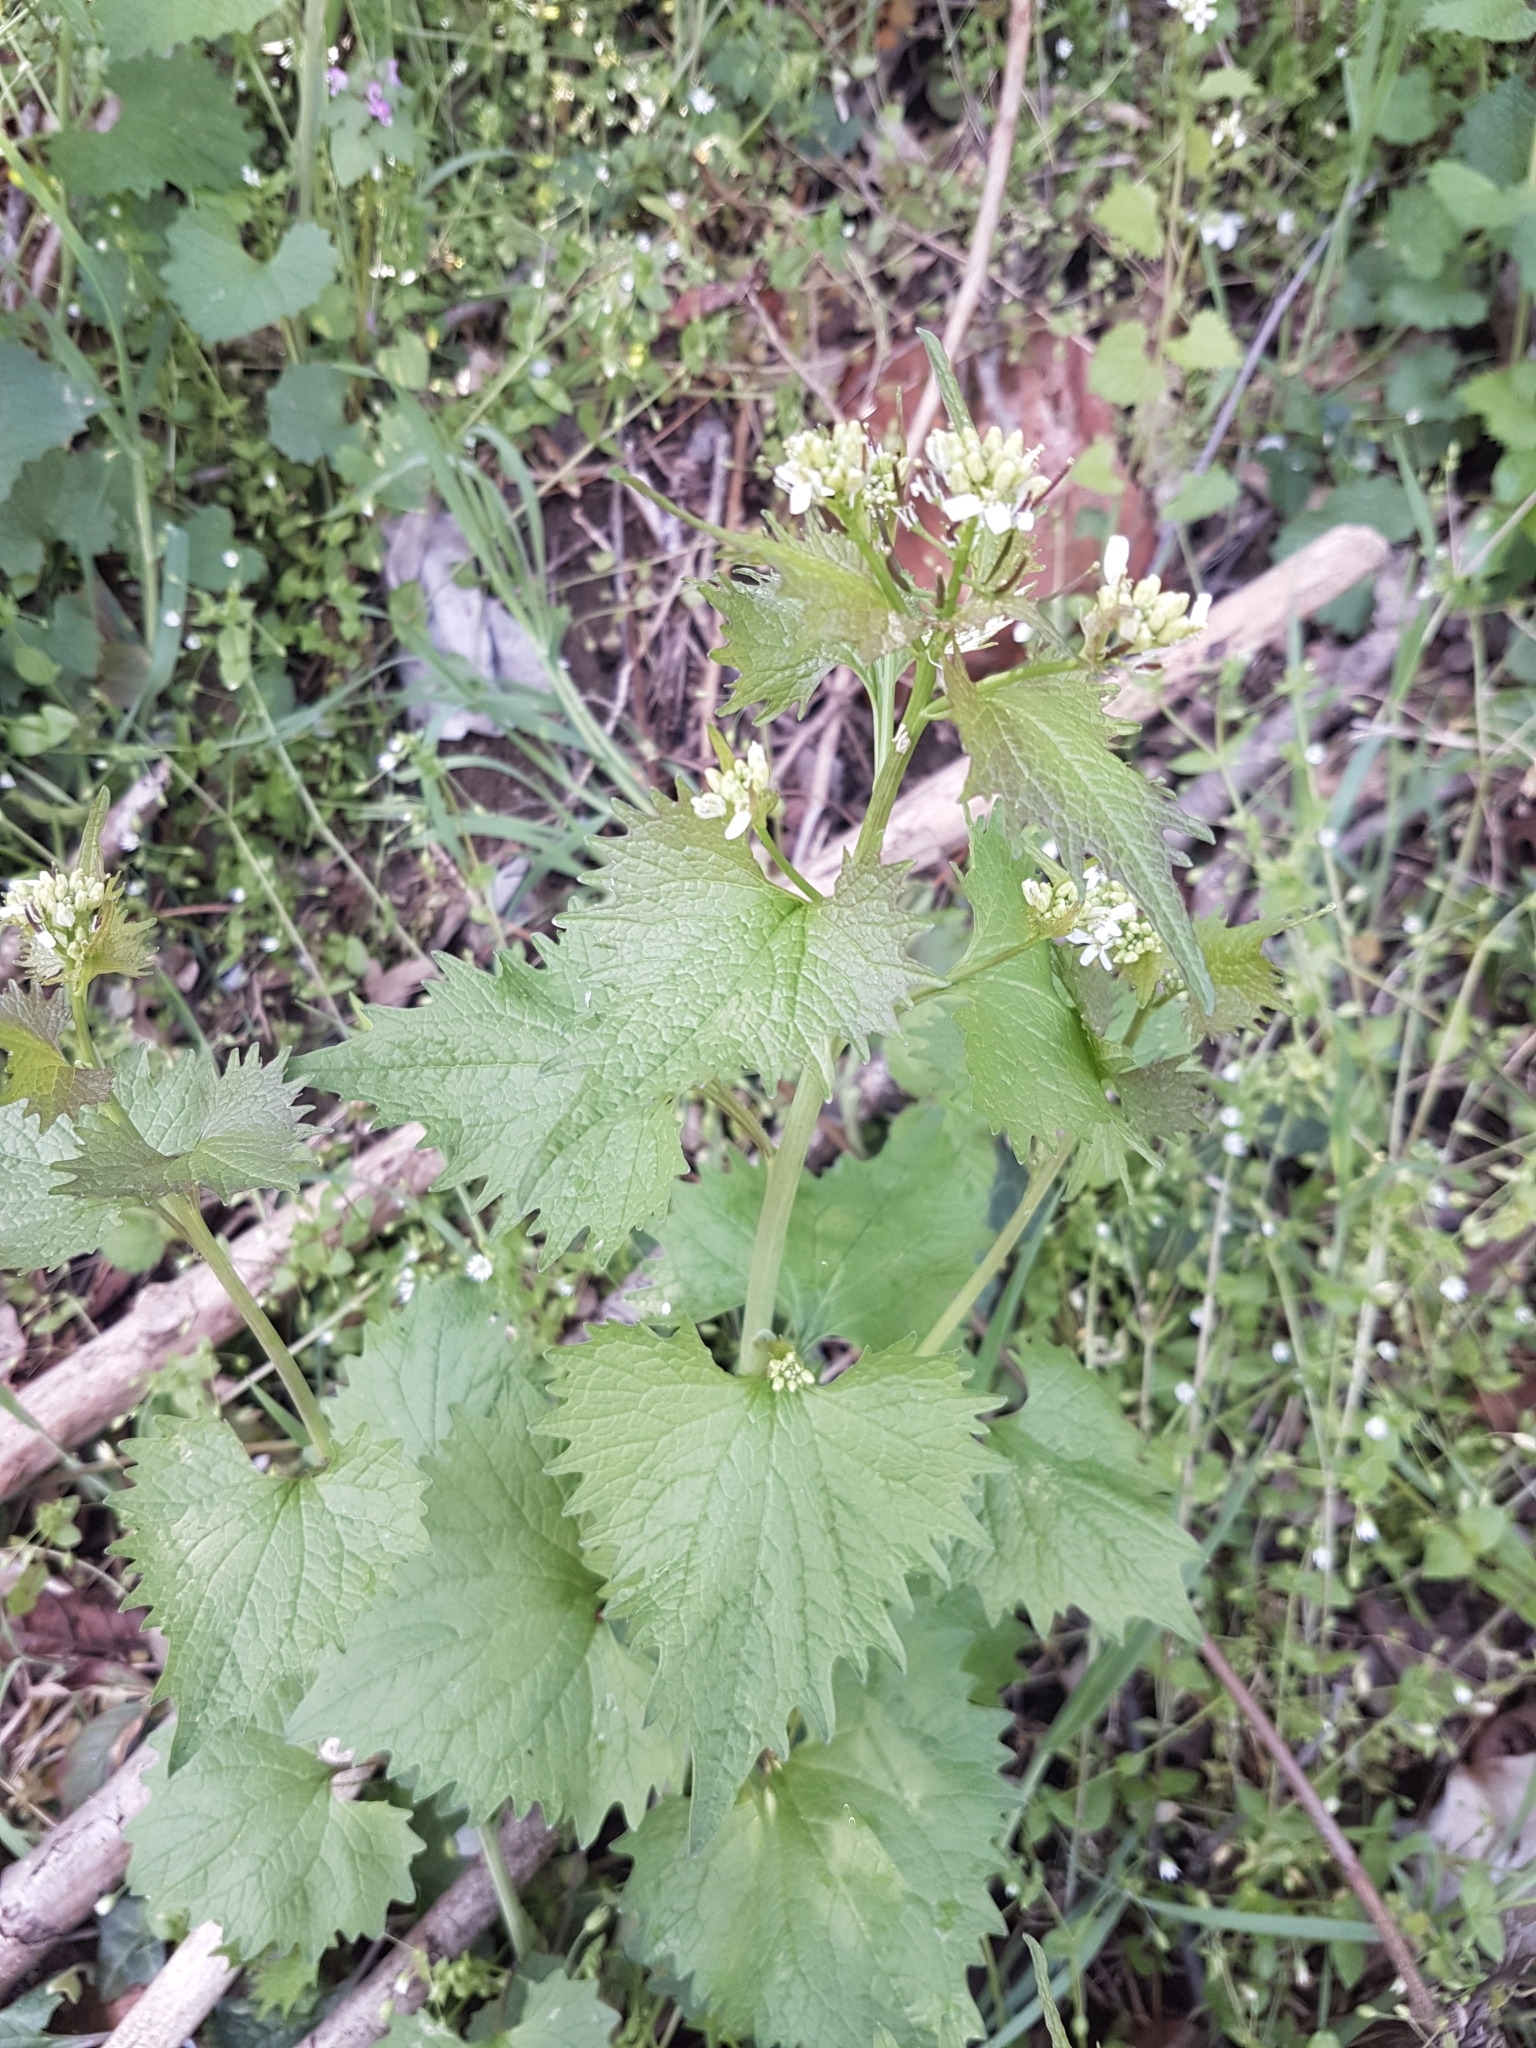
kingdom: Plantae
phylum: Tracheophyta
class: Magnoliopsida
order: Brassicales
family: Brassicaceae
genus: Alliaria
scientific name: Alliaria petiolata
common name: Garlic mustard
